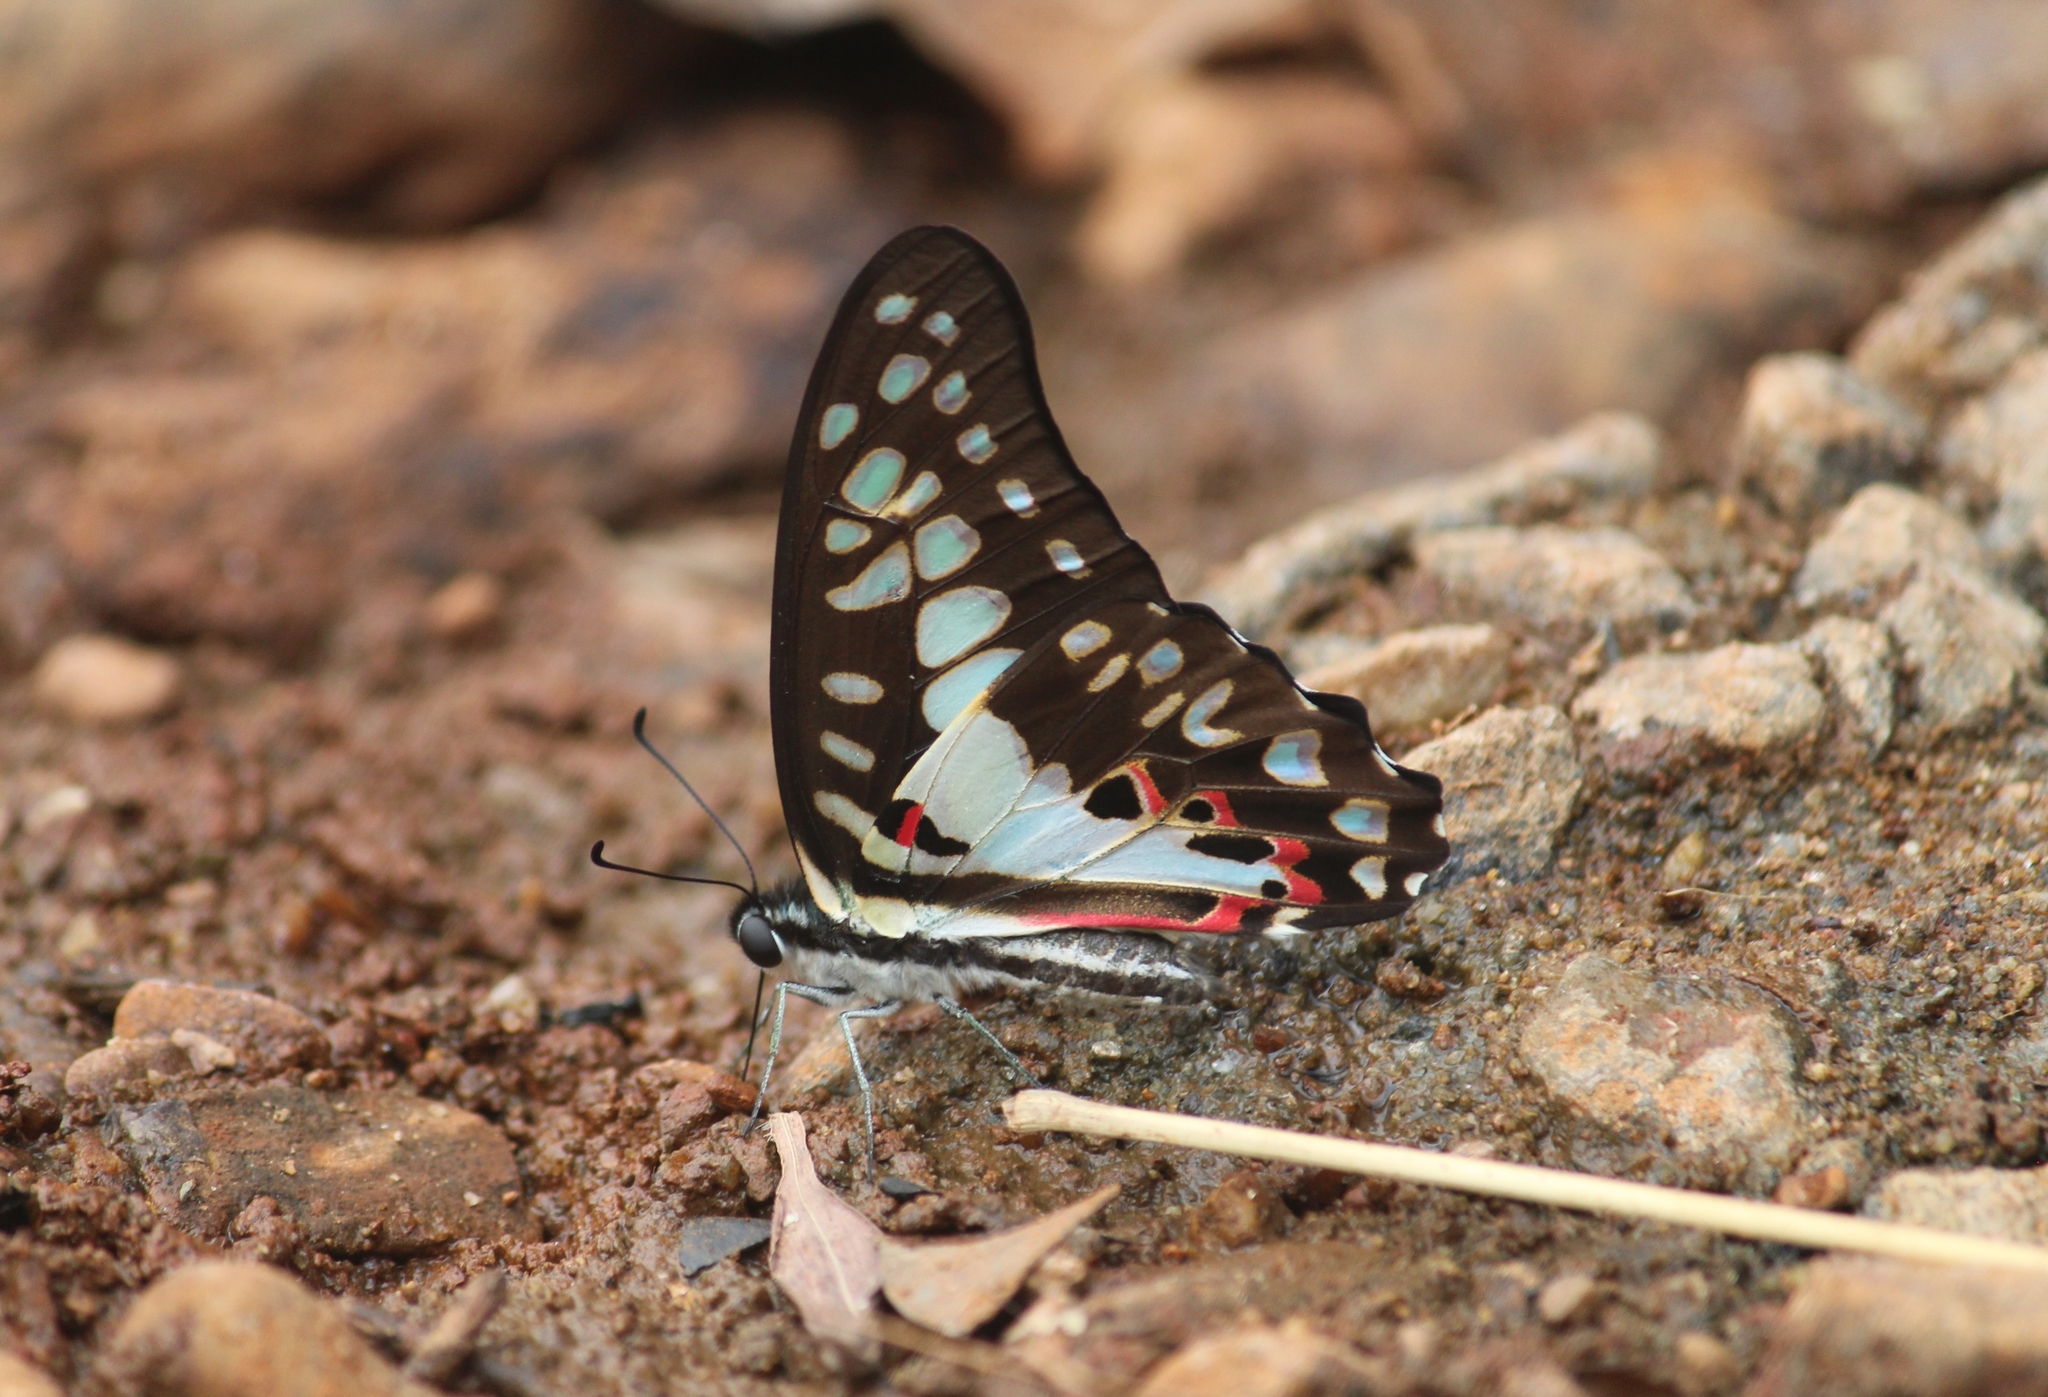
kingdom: Animalia
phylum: Arthropoda
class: Insecta
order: Lepidoptera
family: Papilionidae
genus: Graphium
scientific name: Graphium doson
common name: Common jay
